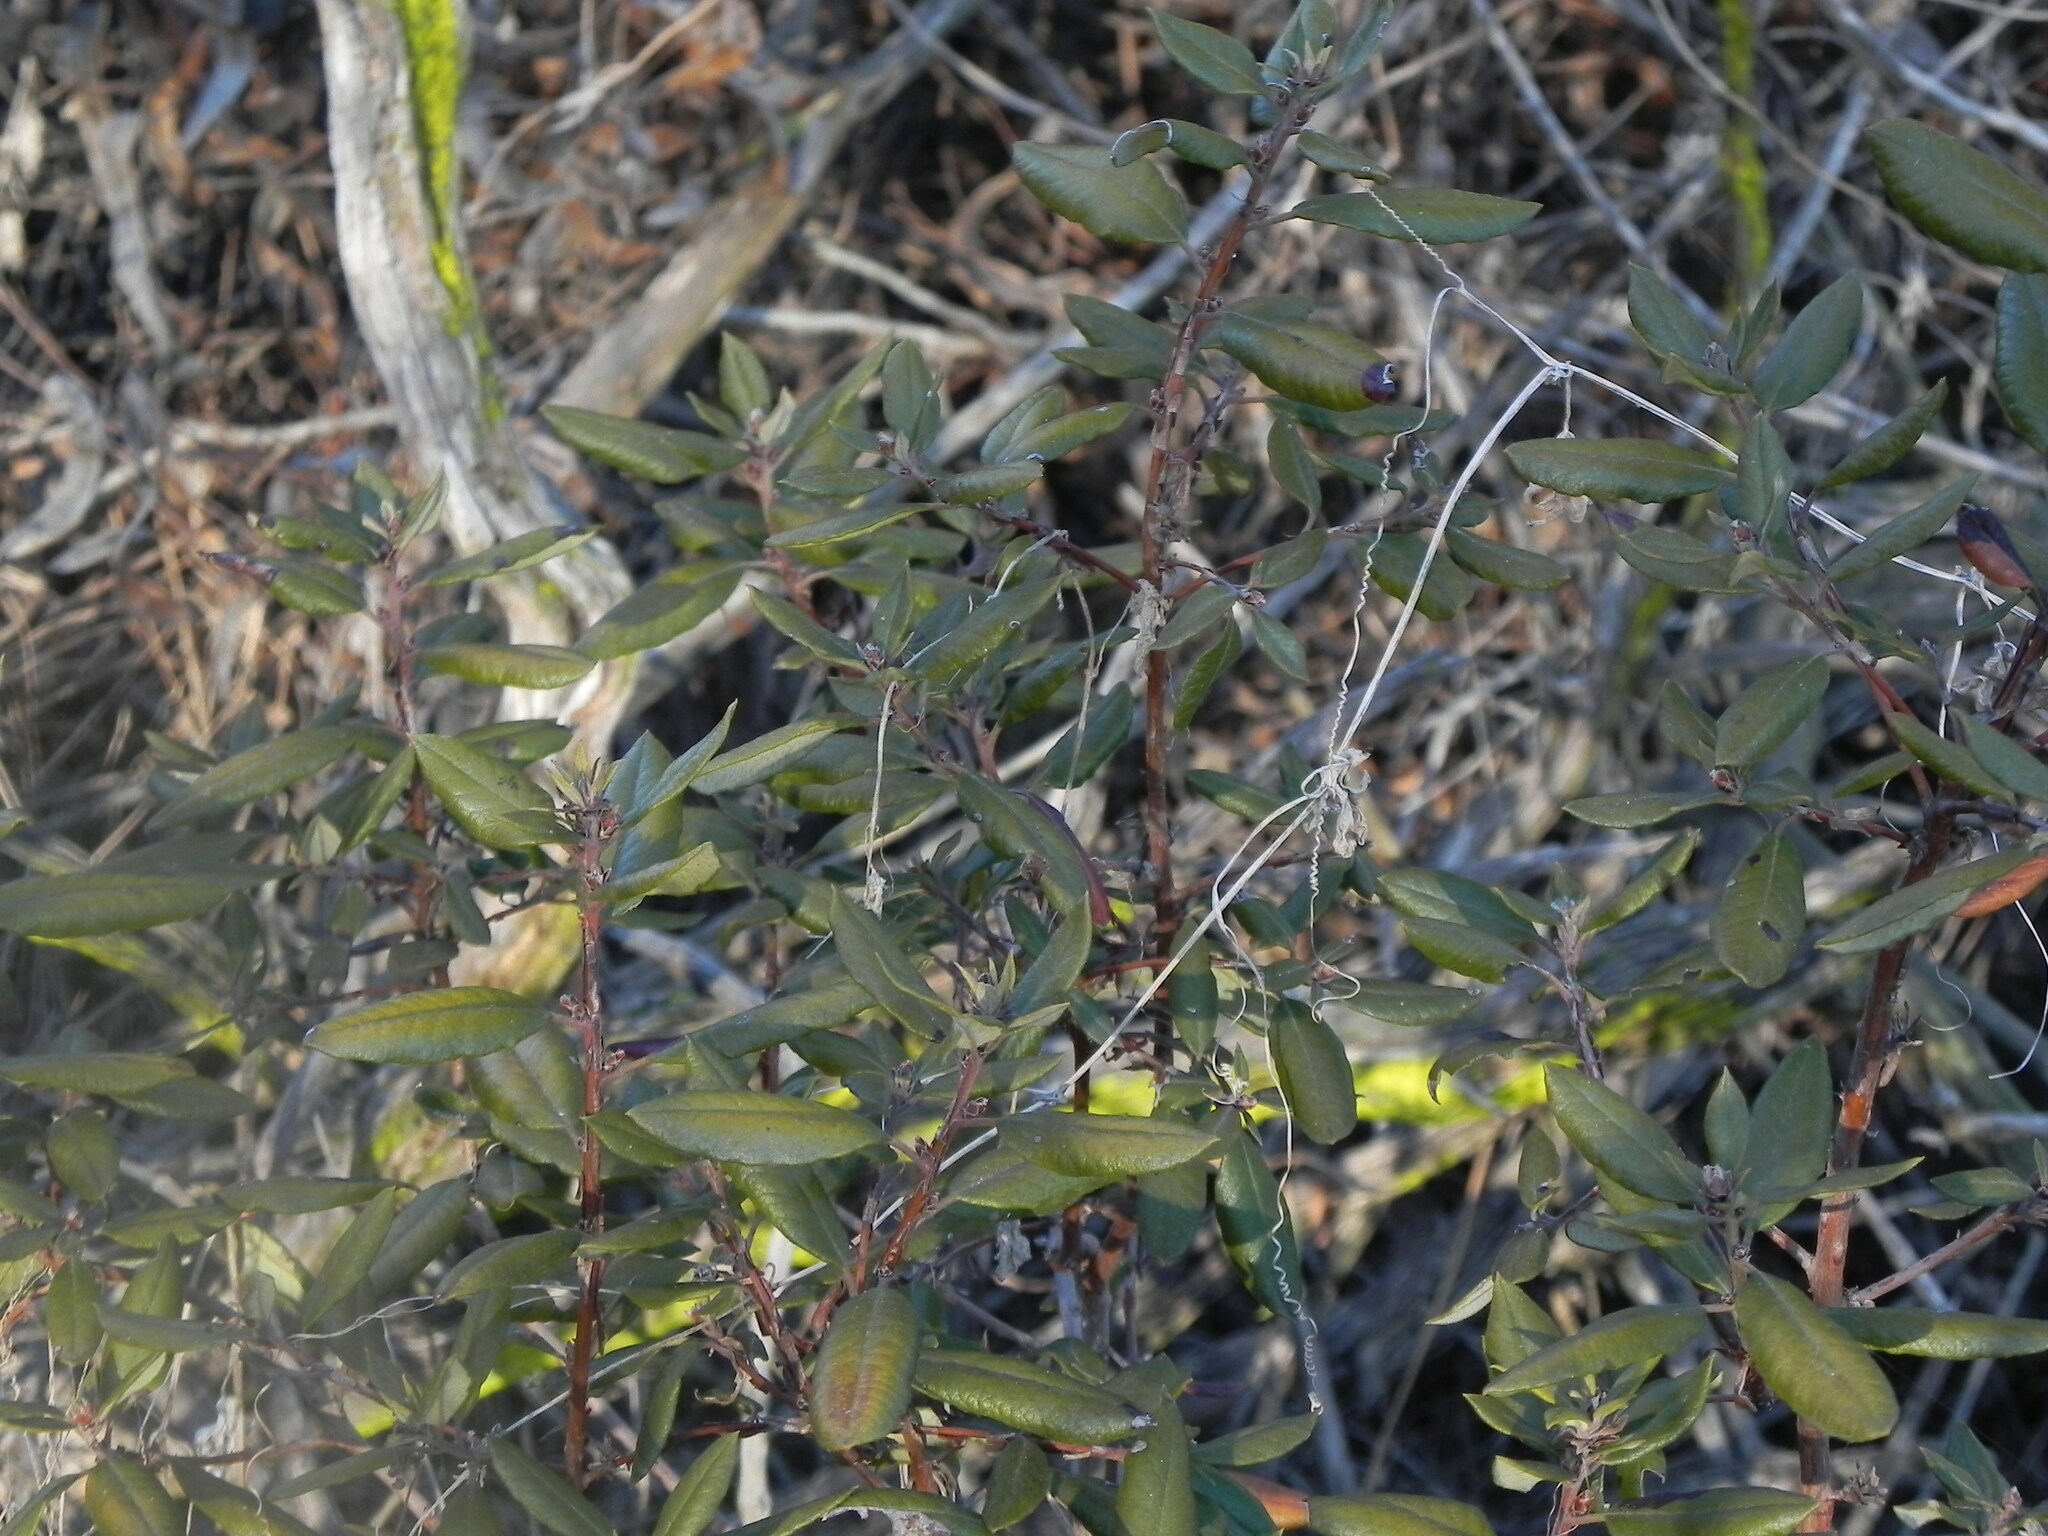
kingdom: Plantae
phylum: Tracheophyta
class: Magnoliopsida
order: Ericales
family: Ericaceae
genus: Arctostaphylos
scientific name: Arctostaphylos bicolor
